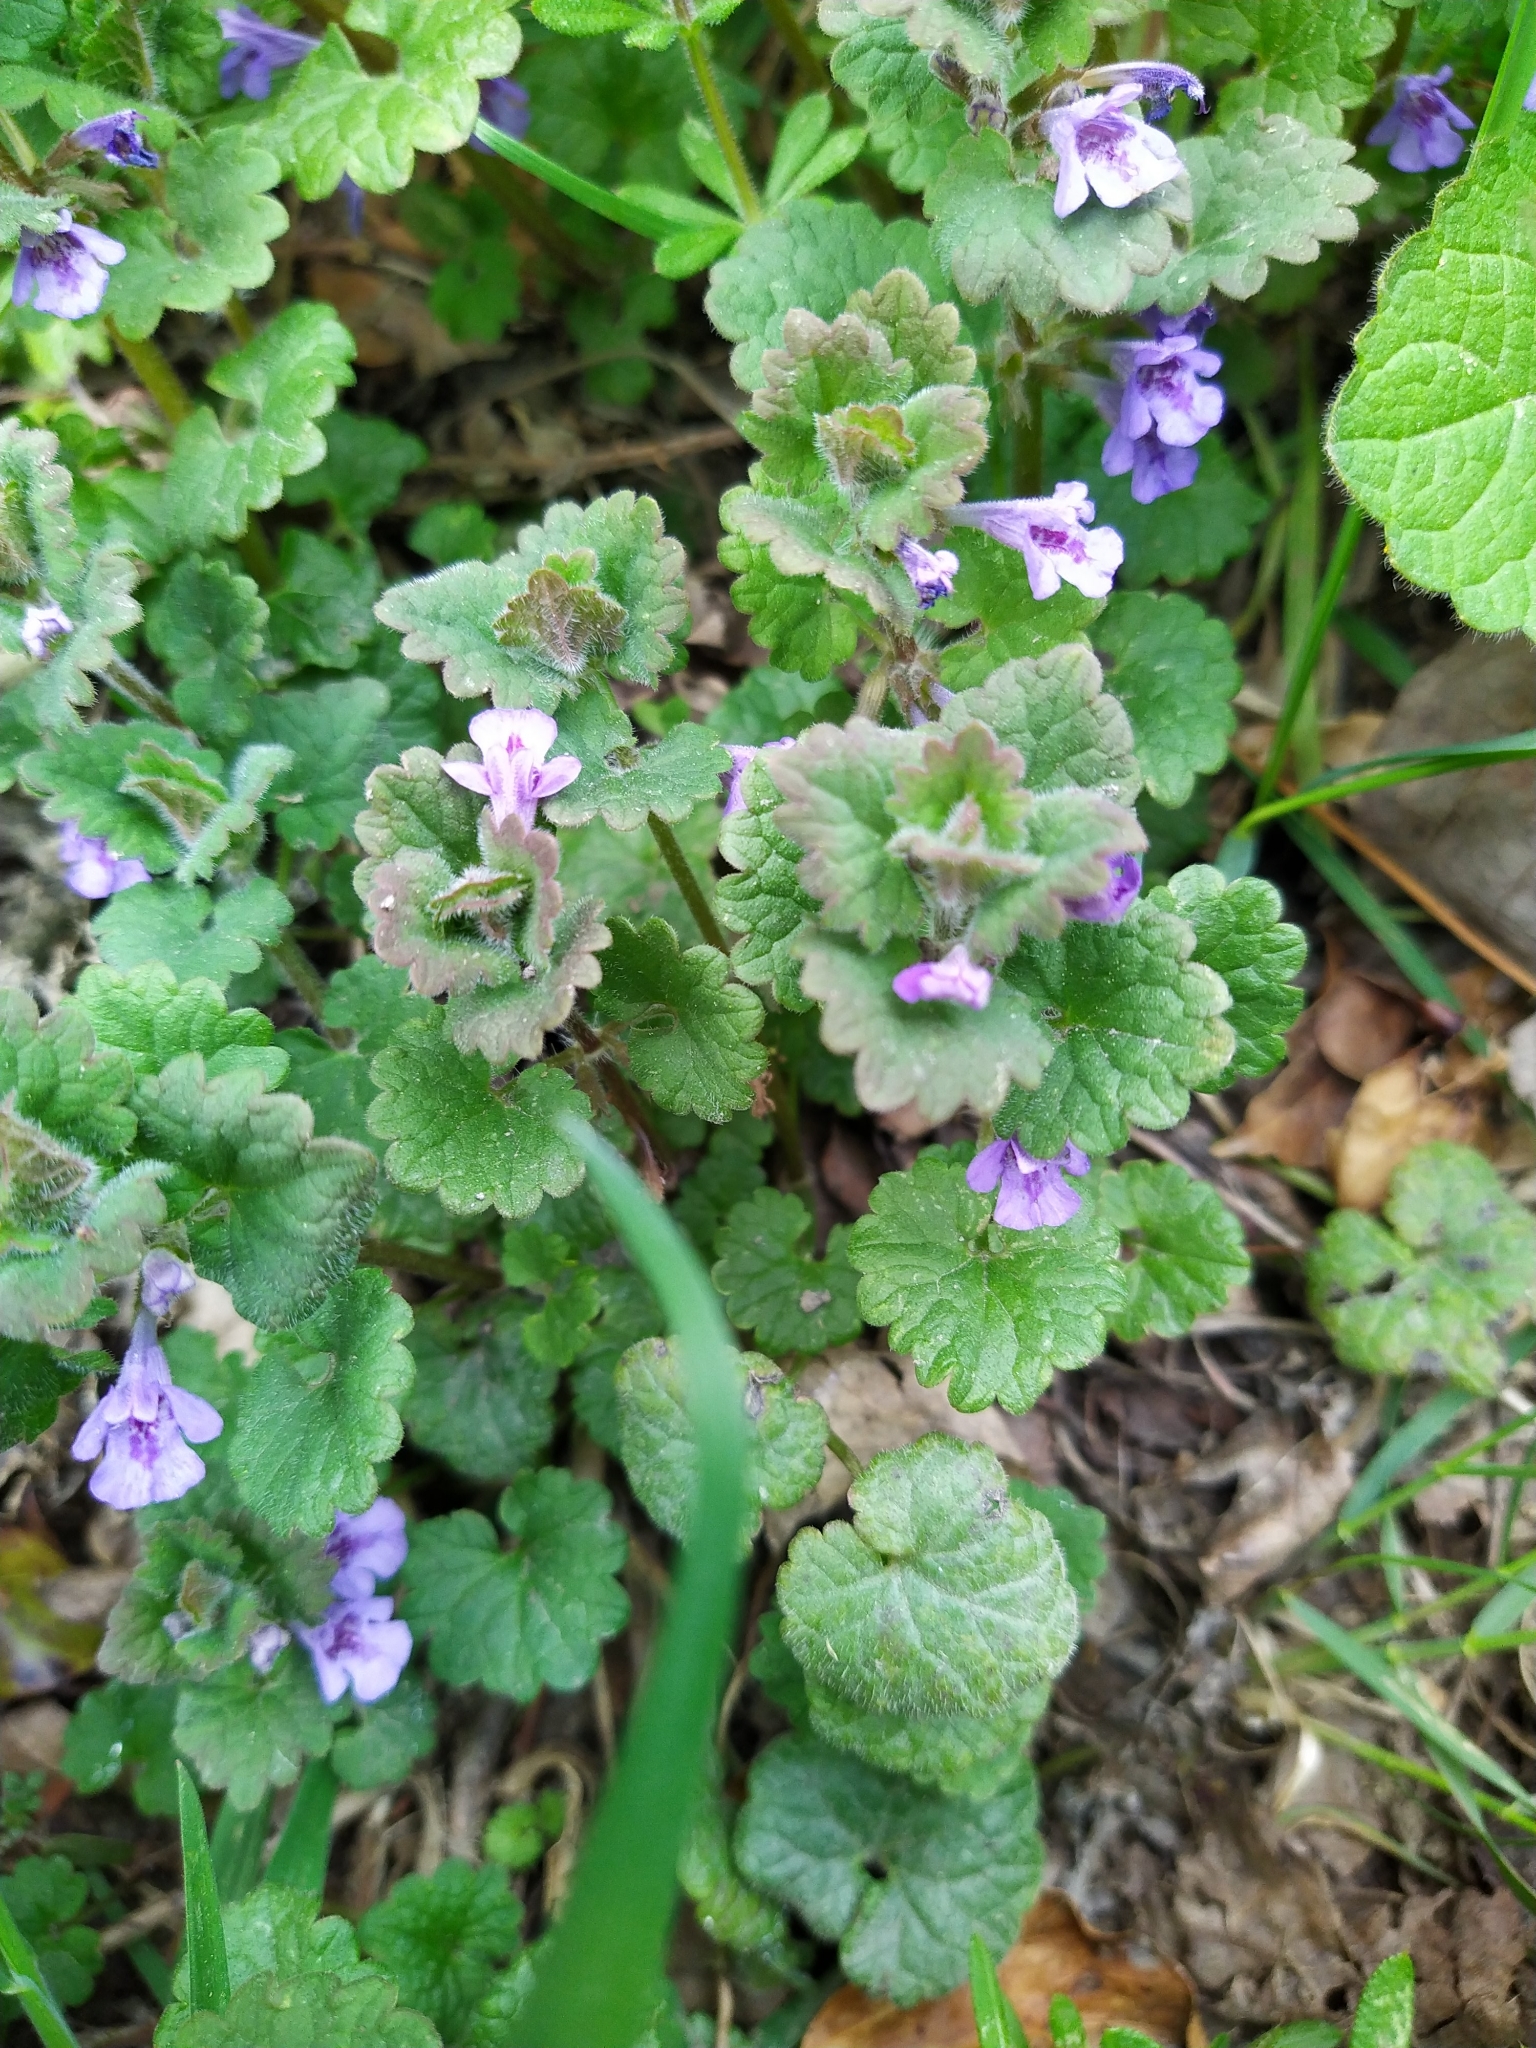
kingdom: Plantae
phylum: Tracheophyta
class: Magnoliopsida
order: Lamiales
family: Lamiaceae
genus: Glechoma
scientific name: Glechoma hederacea
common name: Ground ivy
